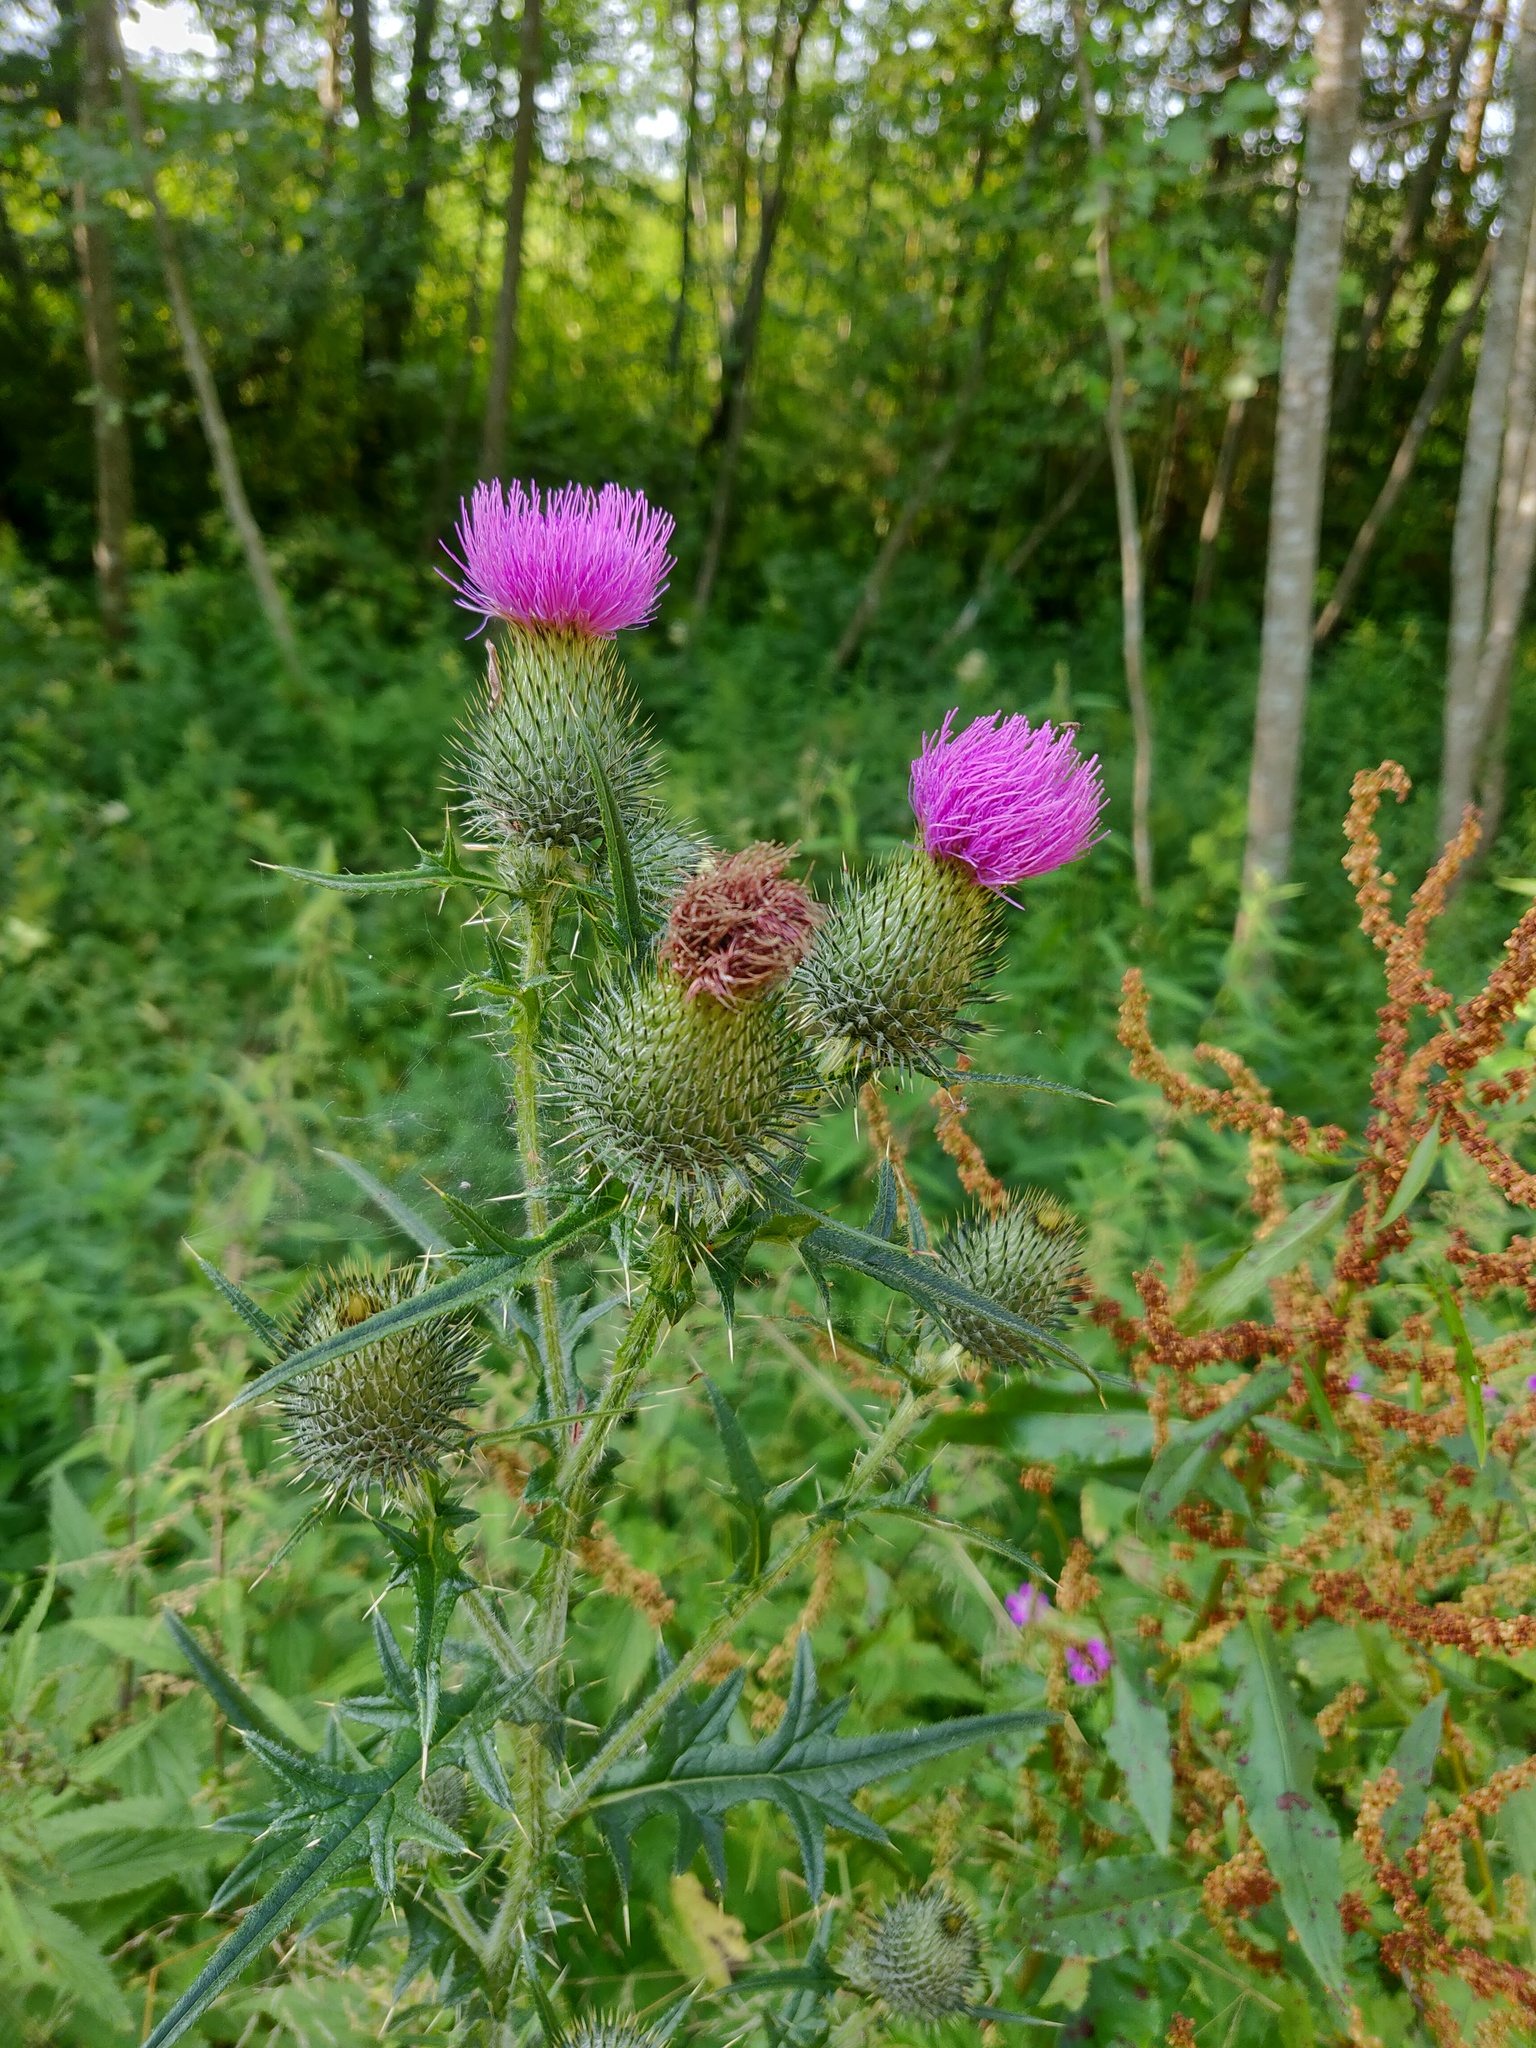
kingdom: Plantae
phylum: Tracheophyta
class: Magnoliopsida
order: Asterales
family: Asteraceae
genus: Cirsium
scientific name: Cirsium vulgare
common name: Bull thistle
